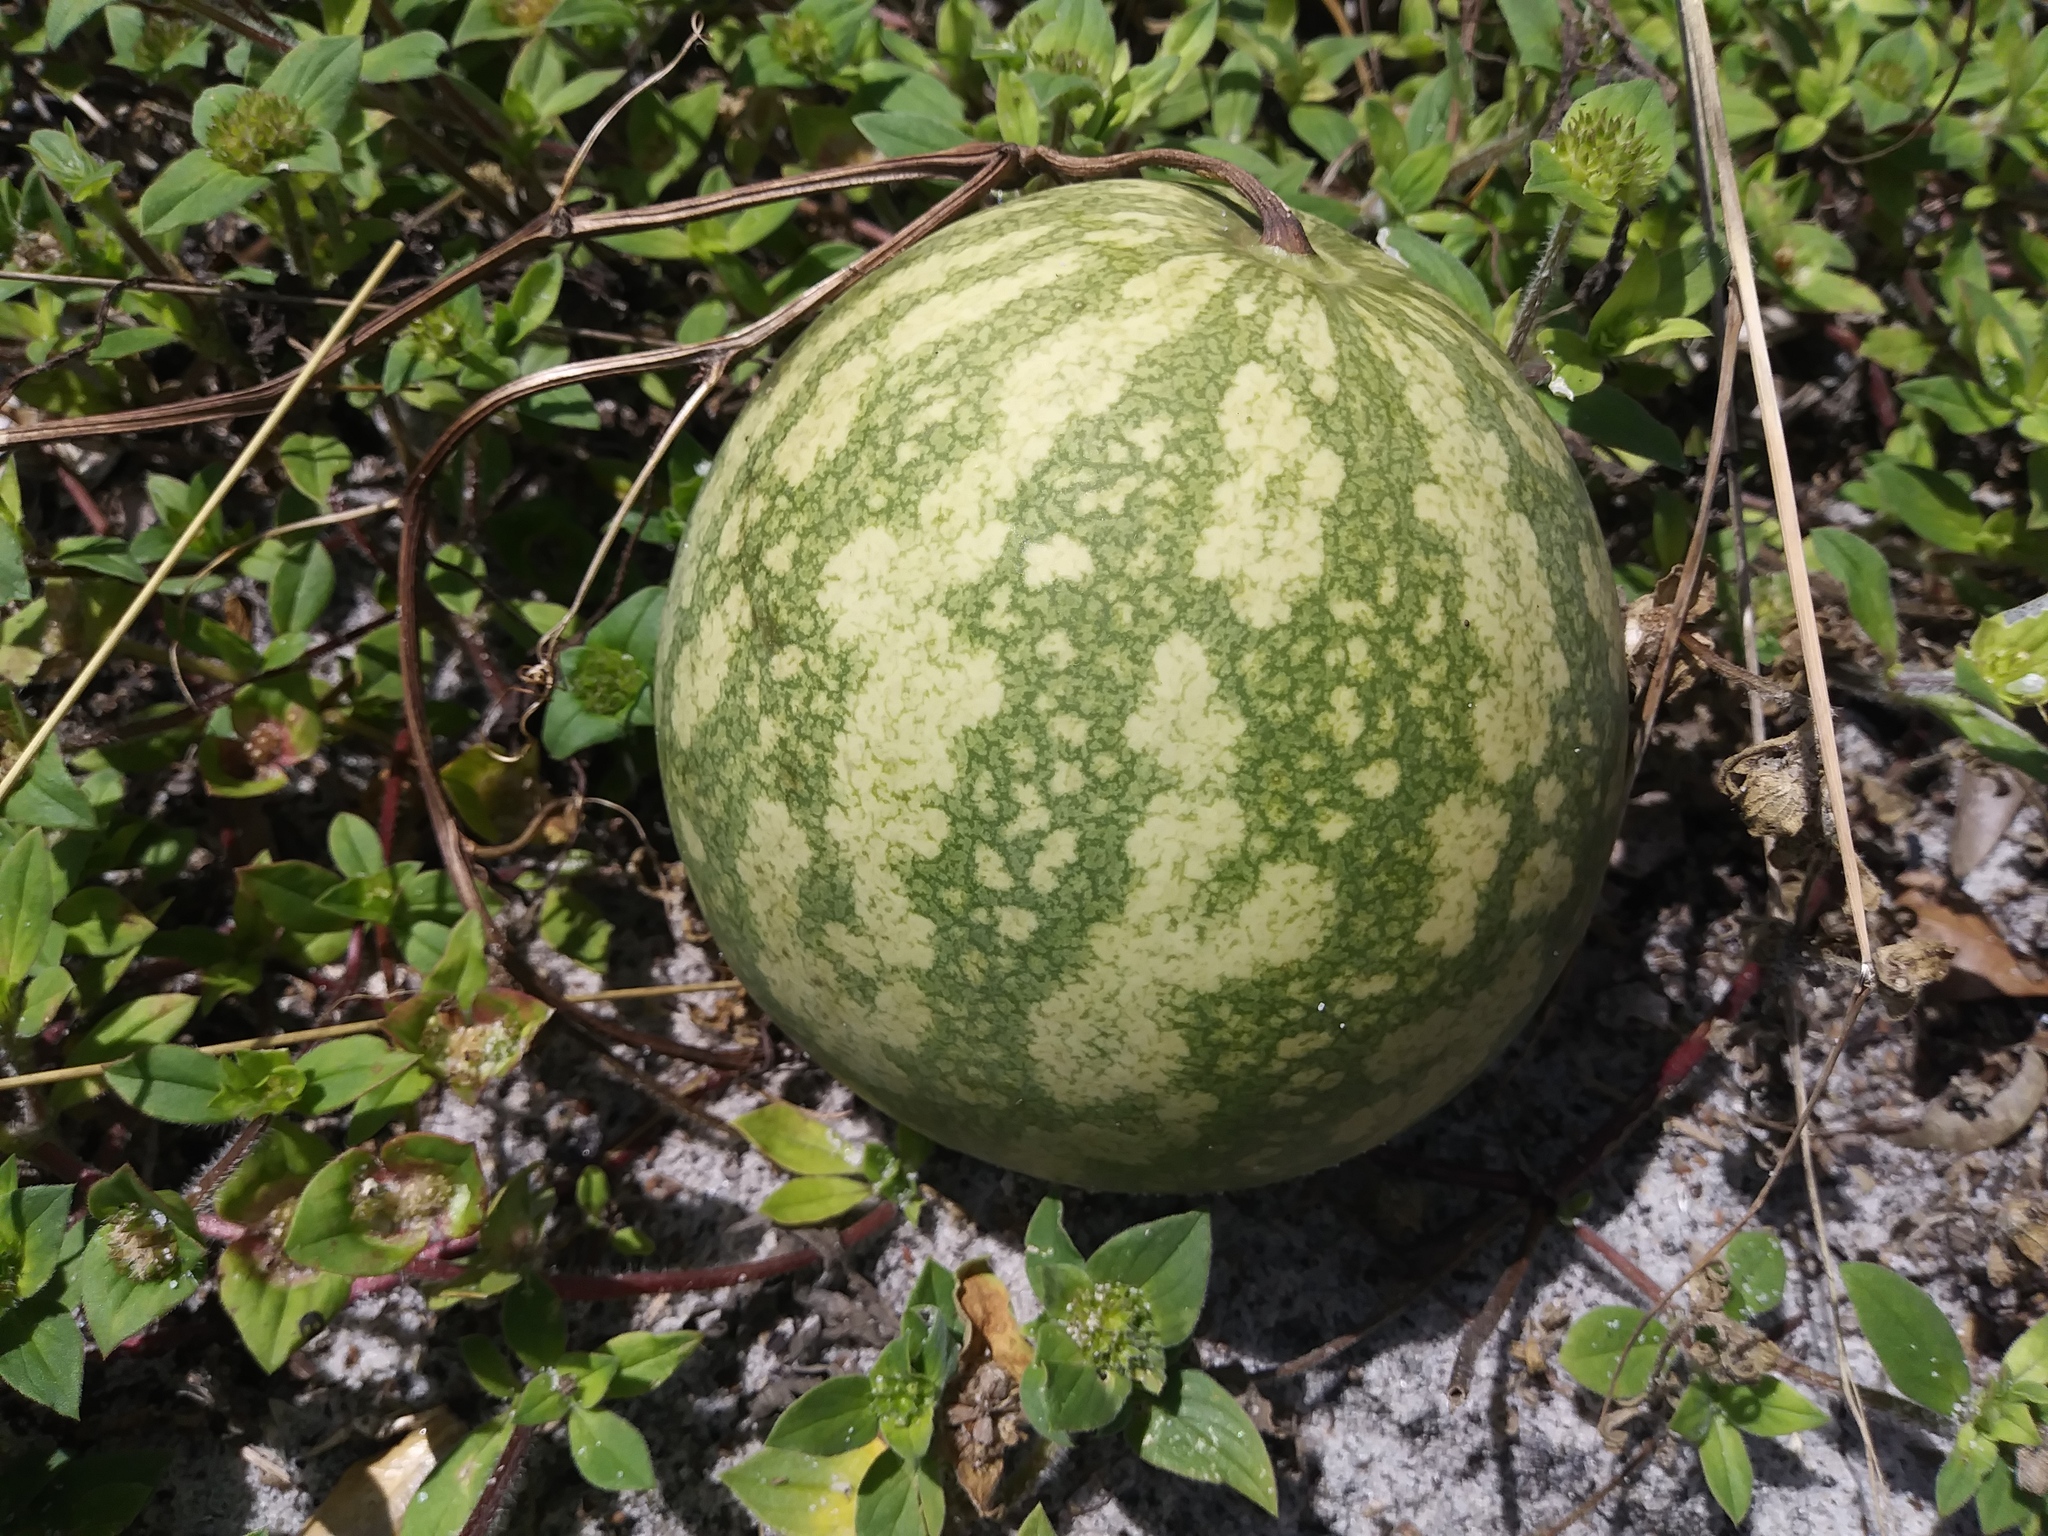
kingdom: Plantae
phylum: Tracheophyta
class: Magnoliopsida
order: Cucurbitales
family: Cucurbitaceae
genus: Citrullus
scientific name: Citrullus lanatus
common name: Watermelon
